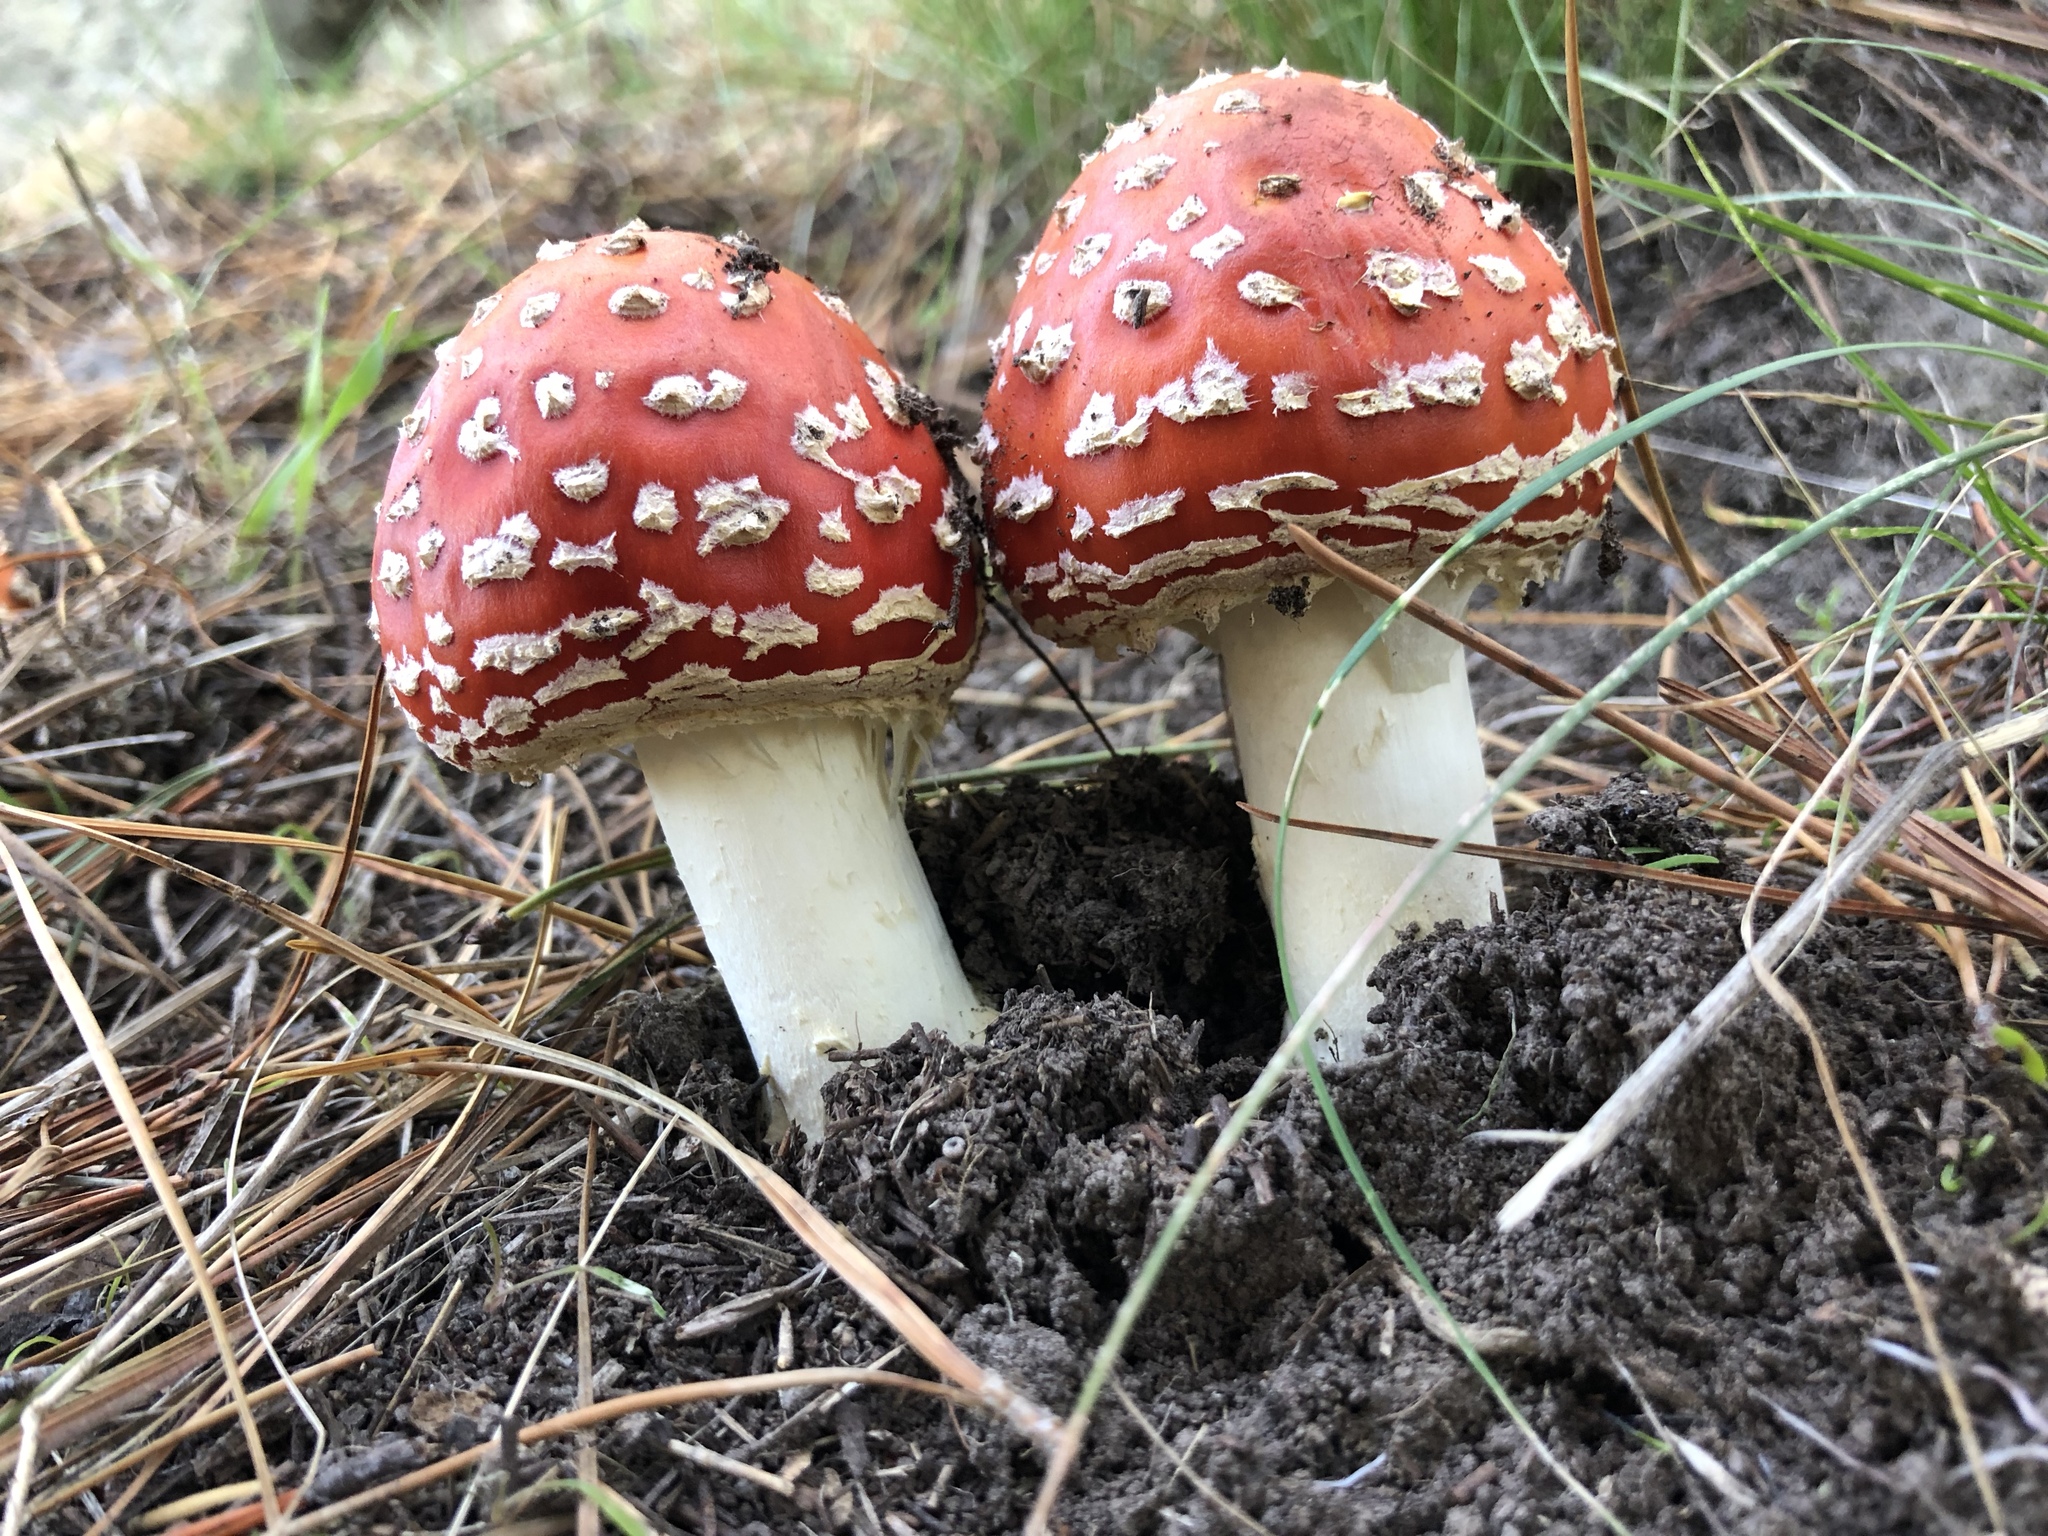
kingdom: Fungi
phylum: Basidiomycota
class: Agaricomycetes
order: Agaricales
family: Amanitaceae
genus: Amanita
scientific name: Amanita muscaria
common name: Fly agaric
